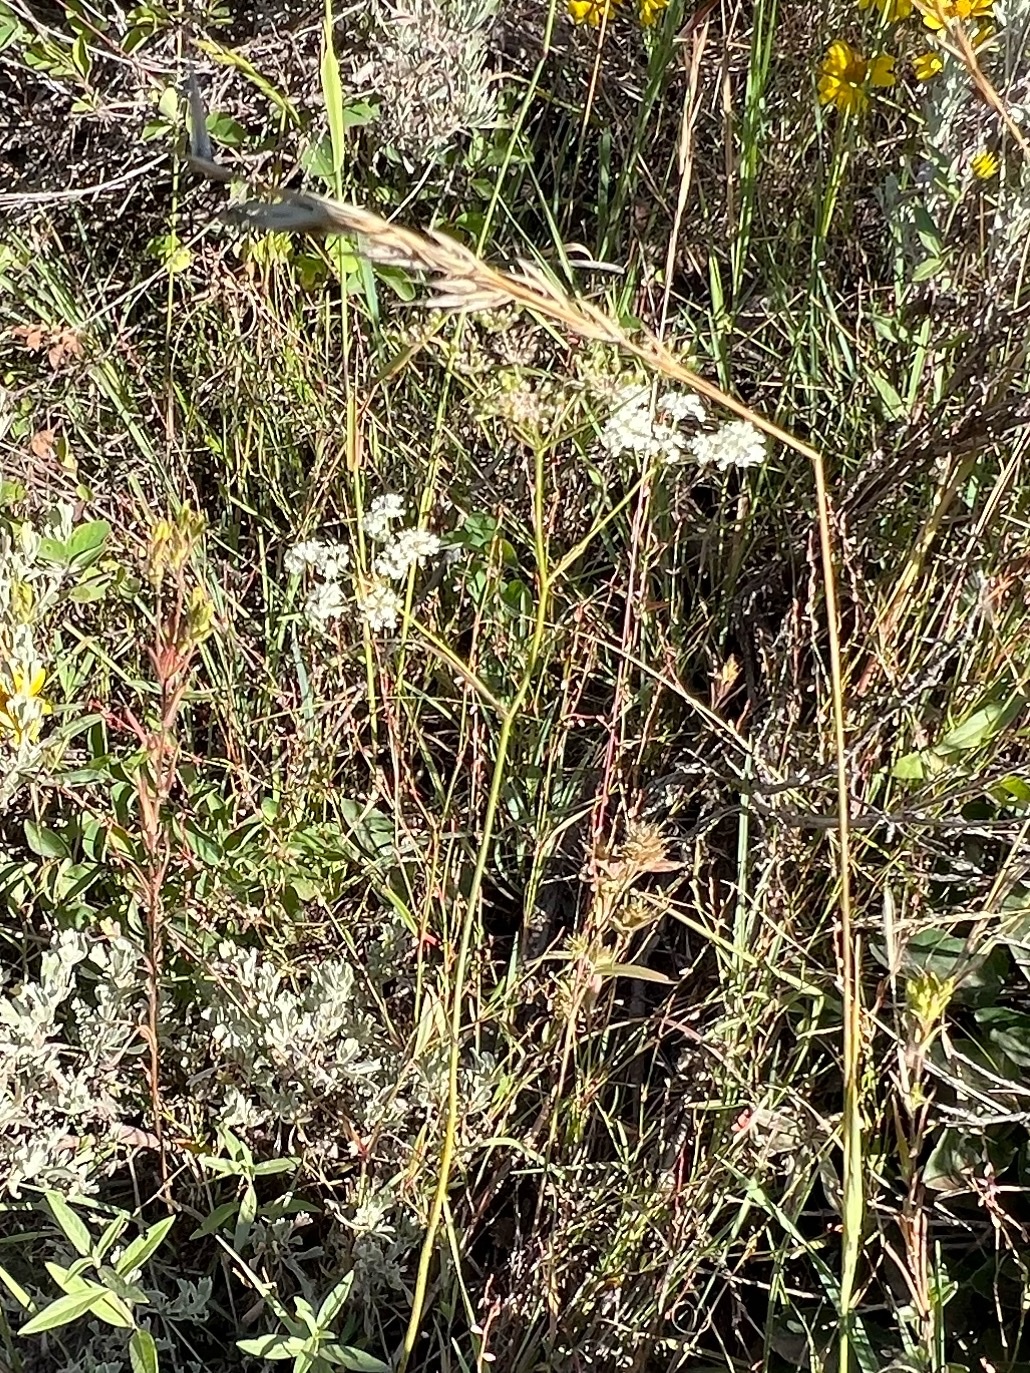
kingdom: Plantae
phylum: Tracheophyta
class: Magnoliopsida
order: Apiales
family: Apiaceae
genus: Perideridia
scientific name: Perideridia gairdneri
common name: False caraway
